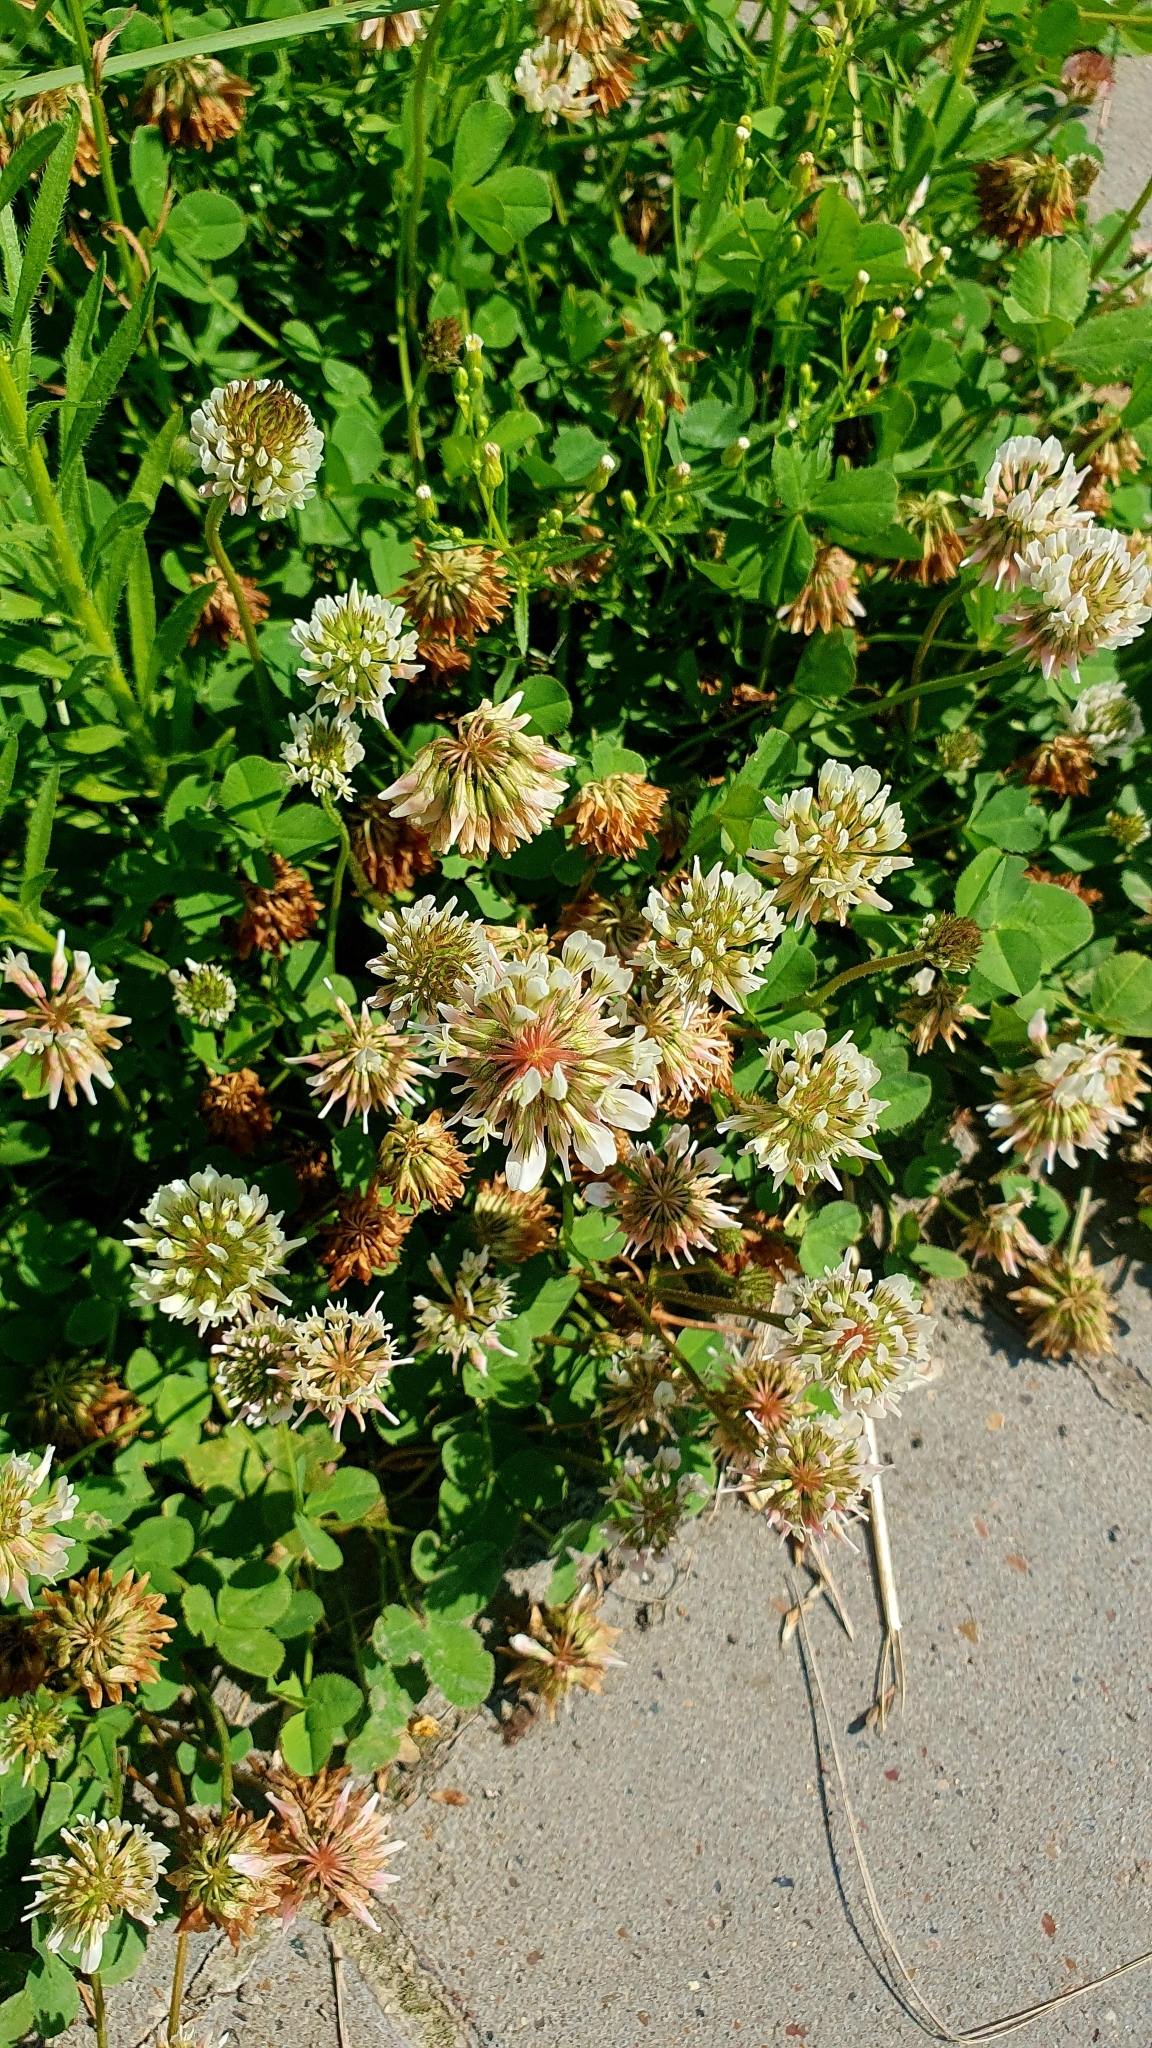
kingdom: Plantae
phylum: Tracheophyta
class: Magnoliopsida
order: Fabales
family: Fabaceae
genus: Trifolium
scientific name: Trifolium repens
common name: White clover
